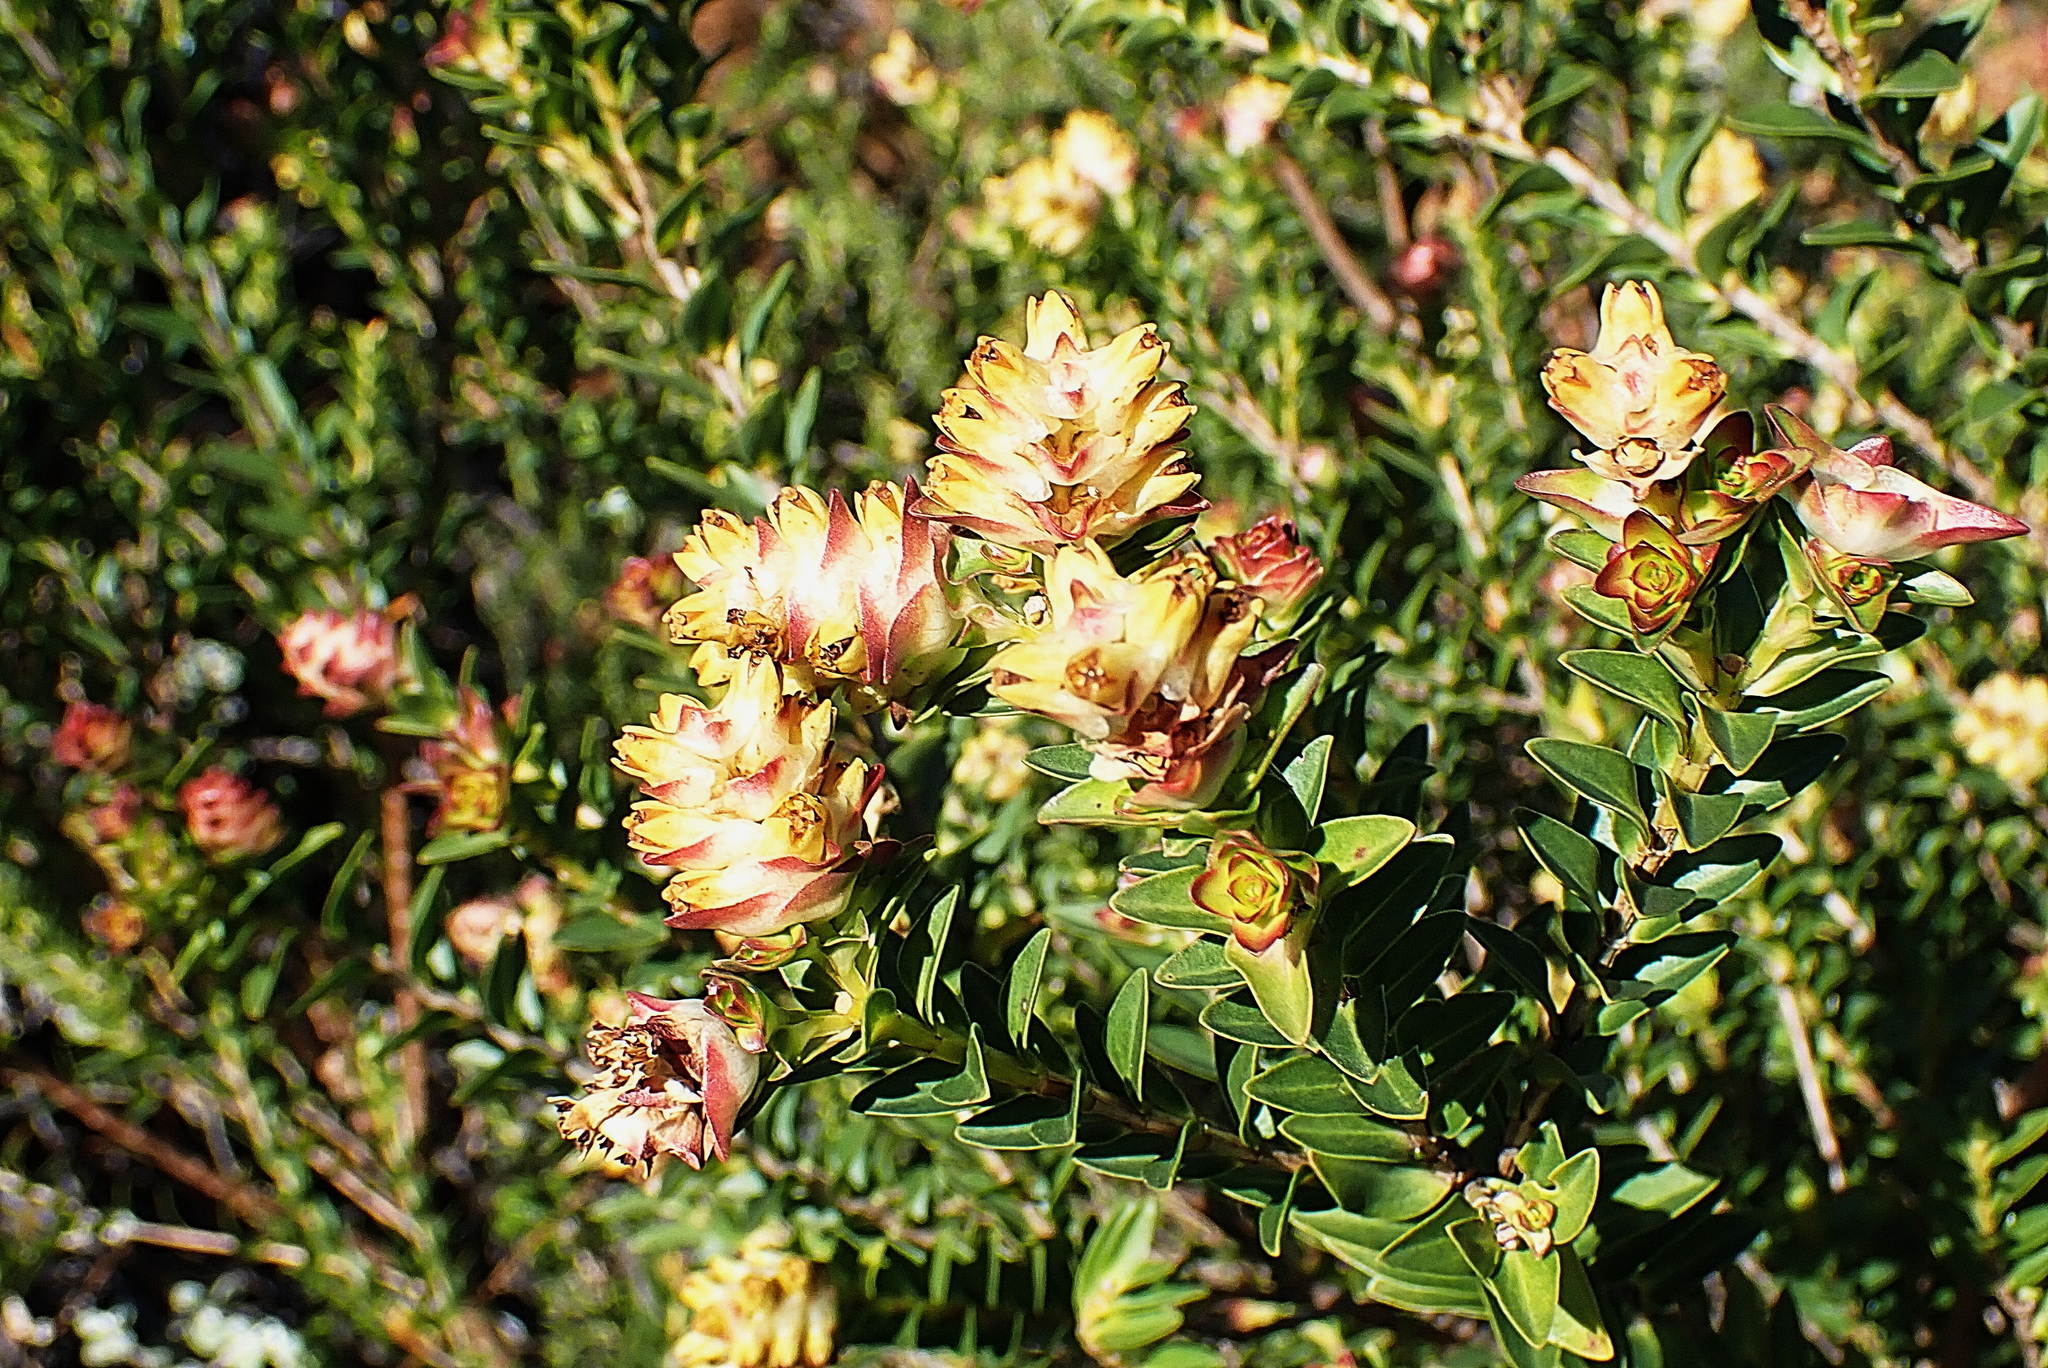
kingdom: Plantae
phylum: Tracheophyta
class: Magnoliopsida
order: Myrtales
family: Penaeaceae
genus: Penaea
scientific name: Penaea cneorum
